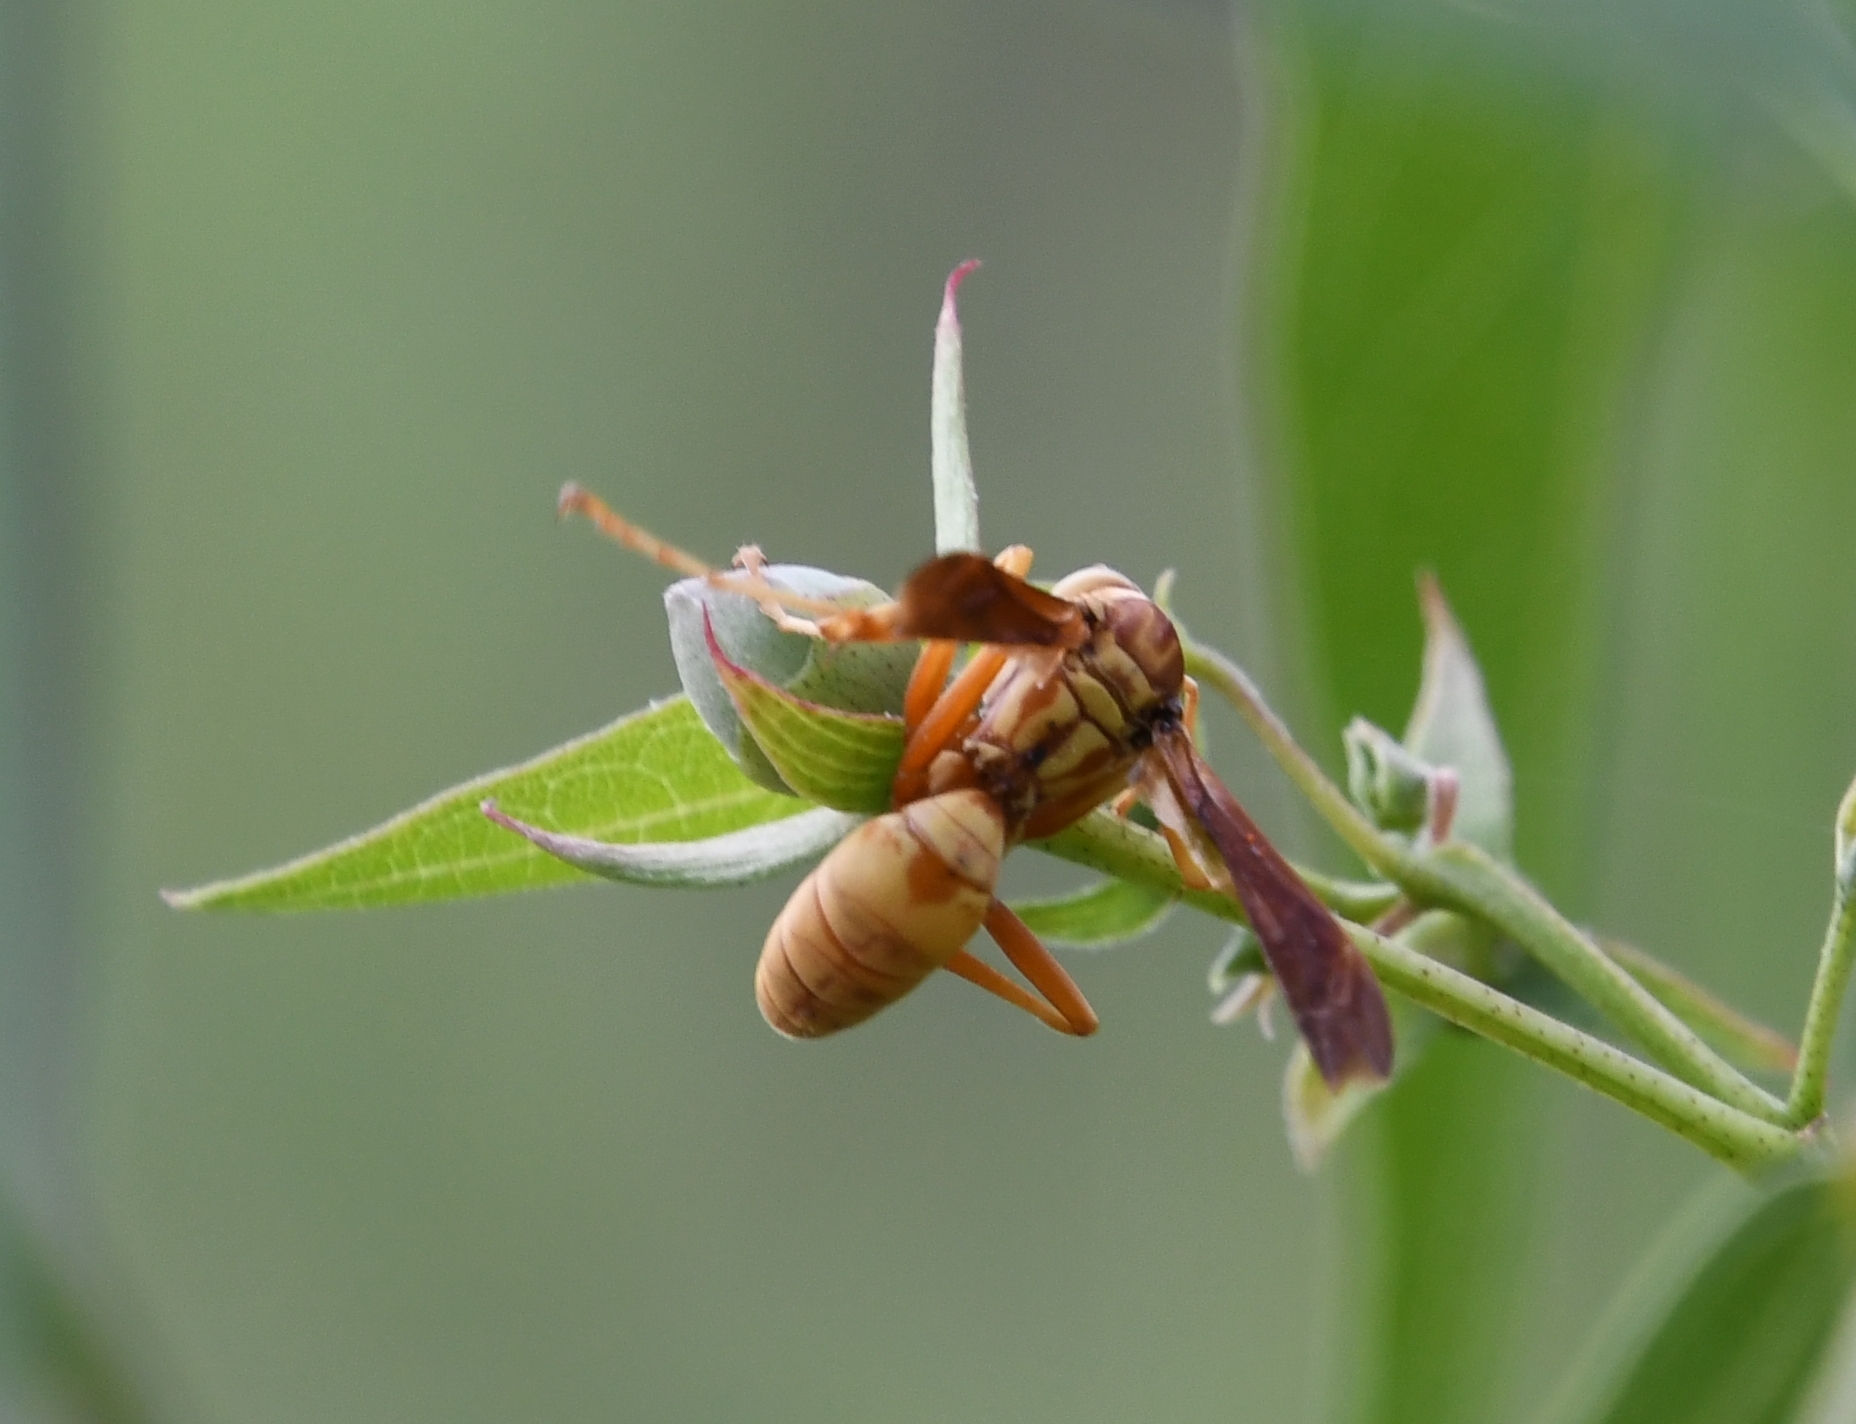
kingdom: Animalia
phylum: Arthropoda
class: Insecta
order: Hymenoptera
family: Eumenidae
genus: Polistes
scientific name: Polistes aurifer
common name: Paper wasp
